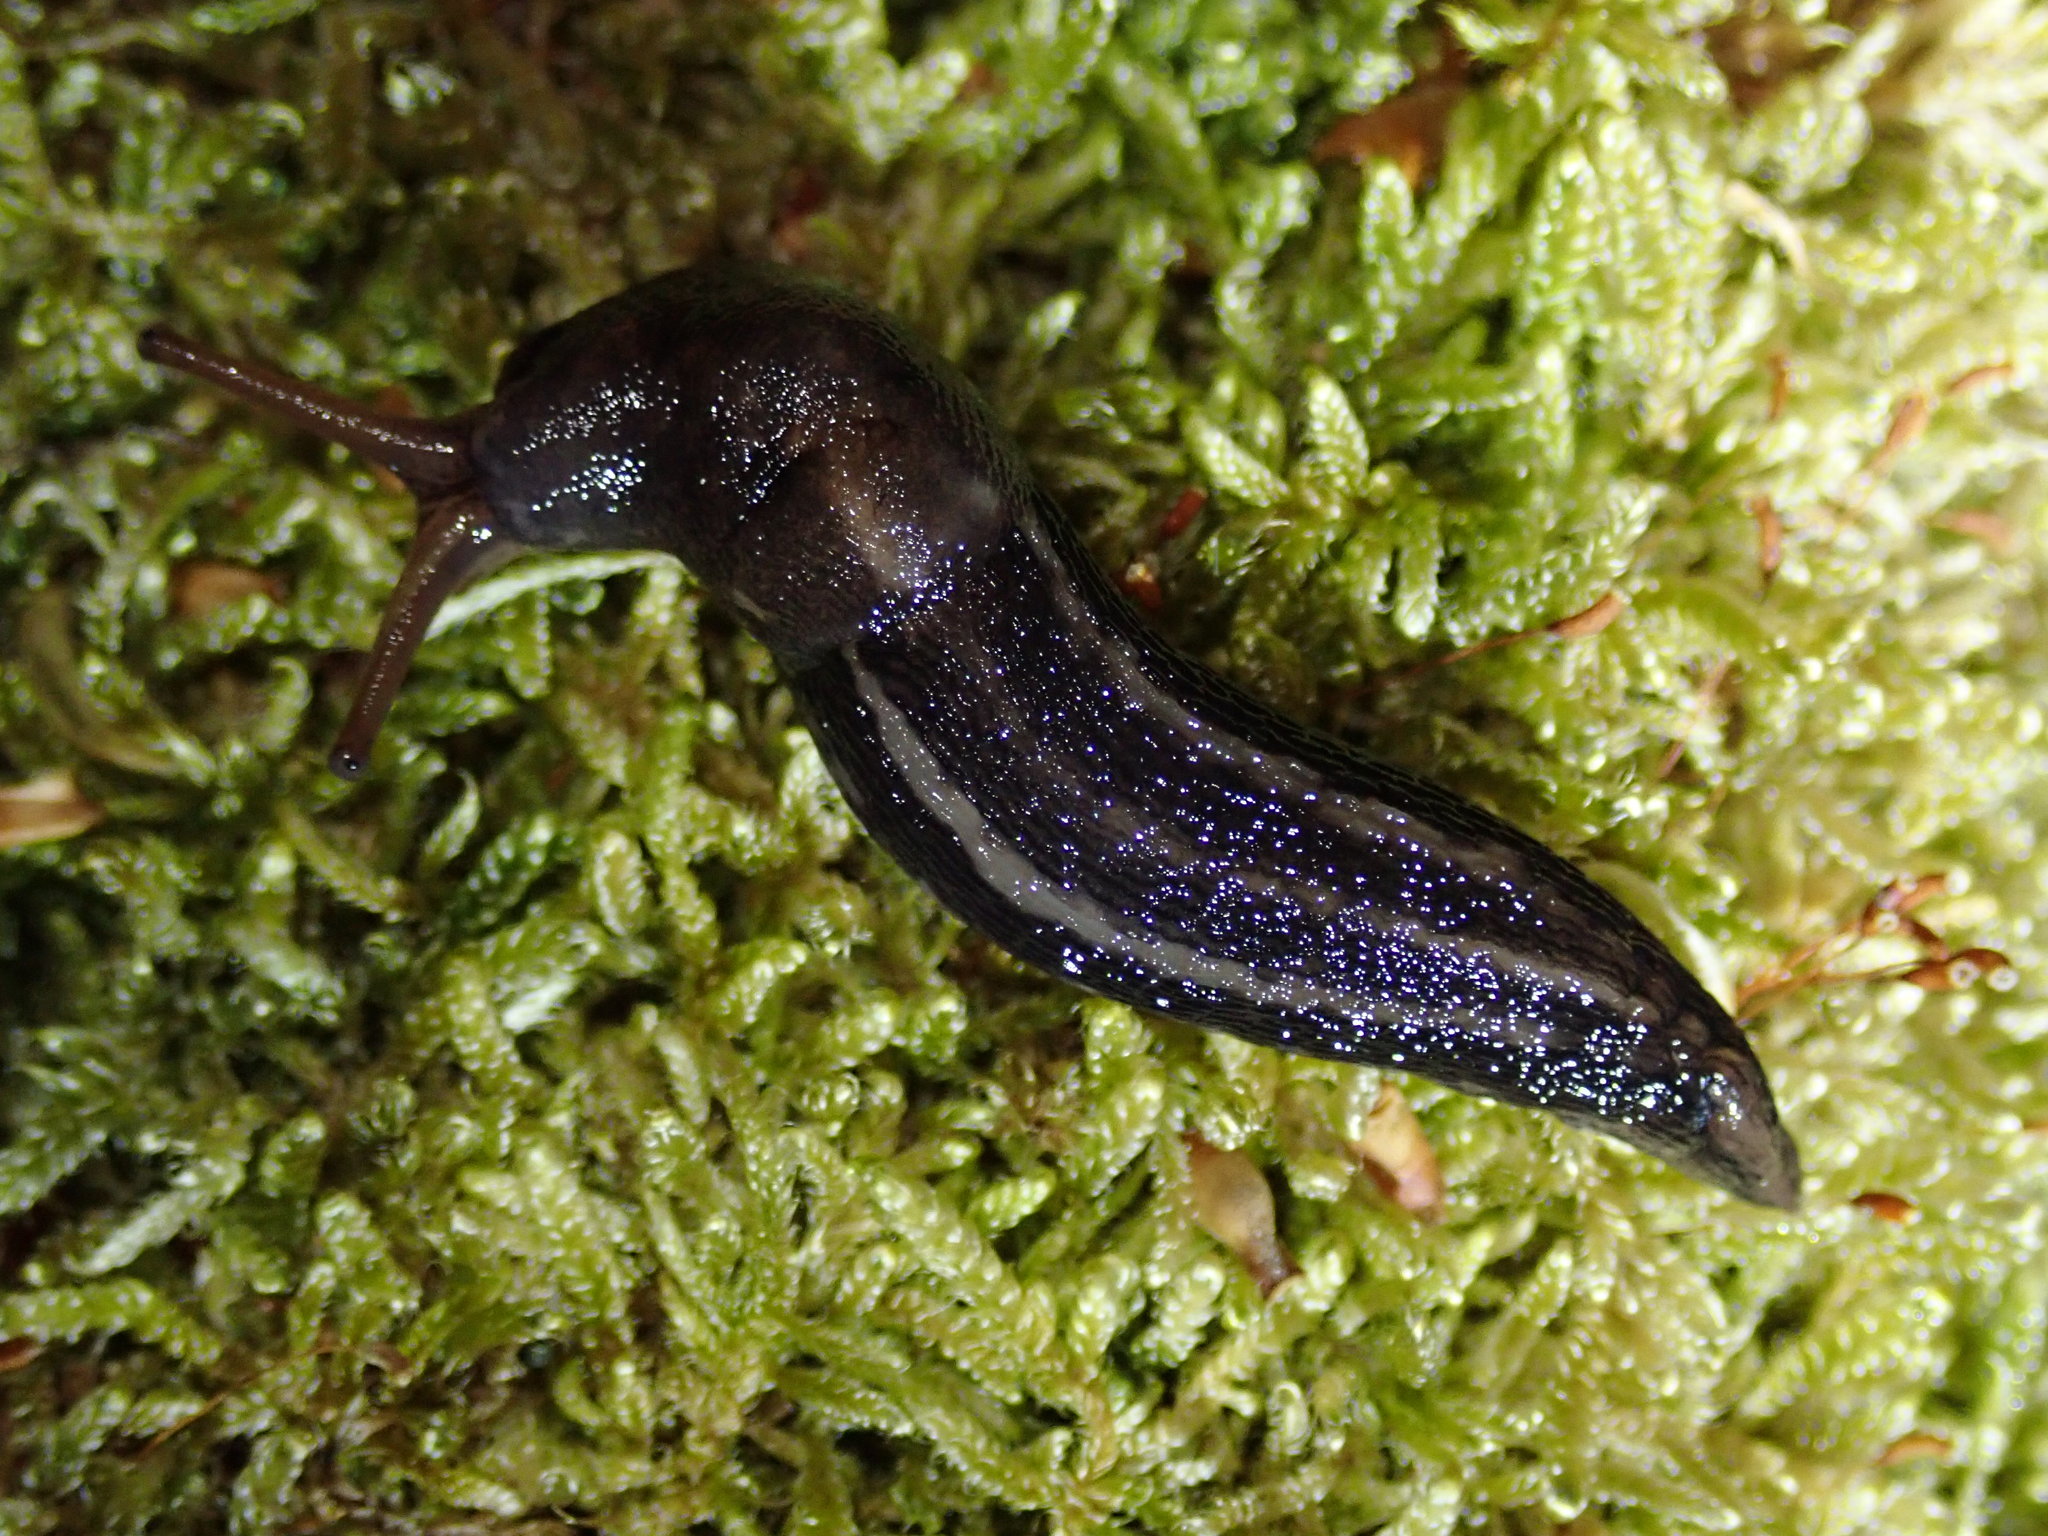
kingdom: Animalia
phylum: Mollusca
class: Gastropoda
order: Stylommatophora
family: Limacidae
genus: Limax
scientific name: Limax maximus
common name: Great grey slug
